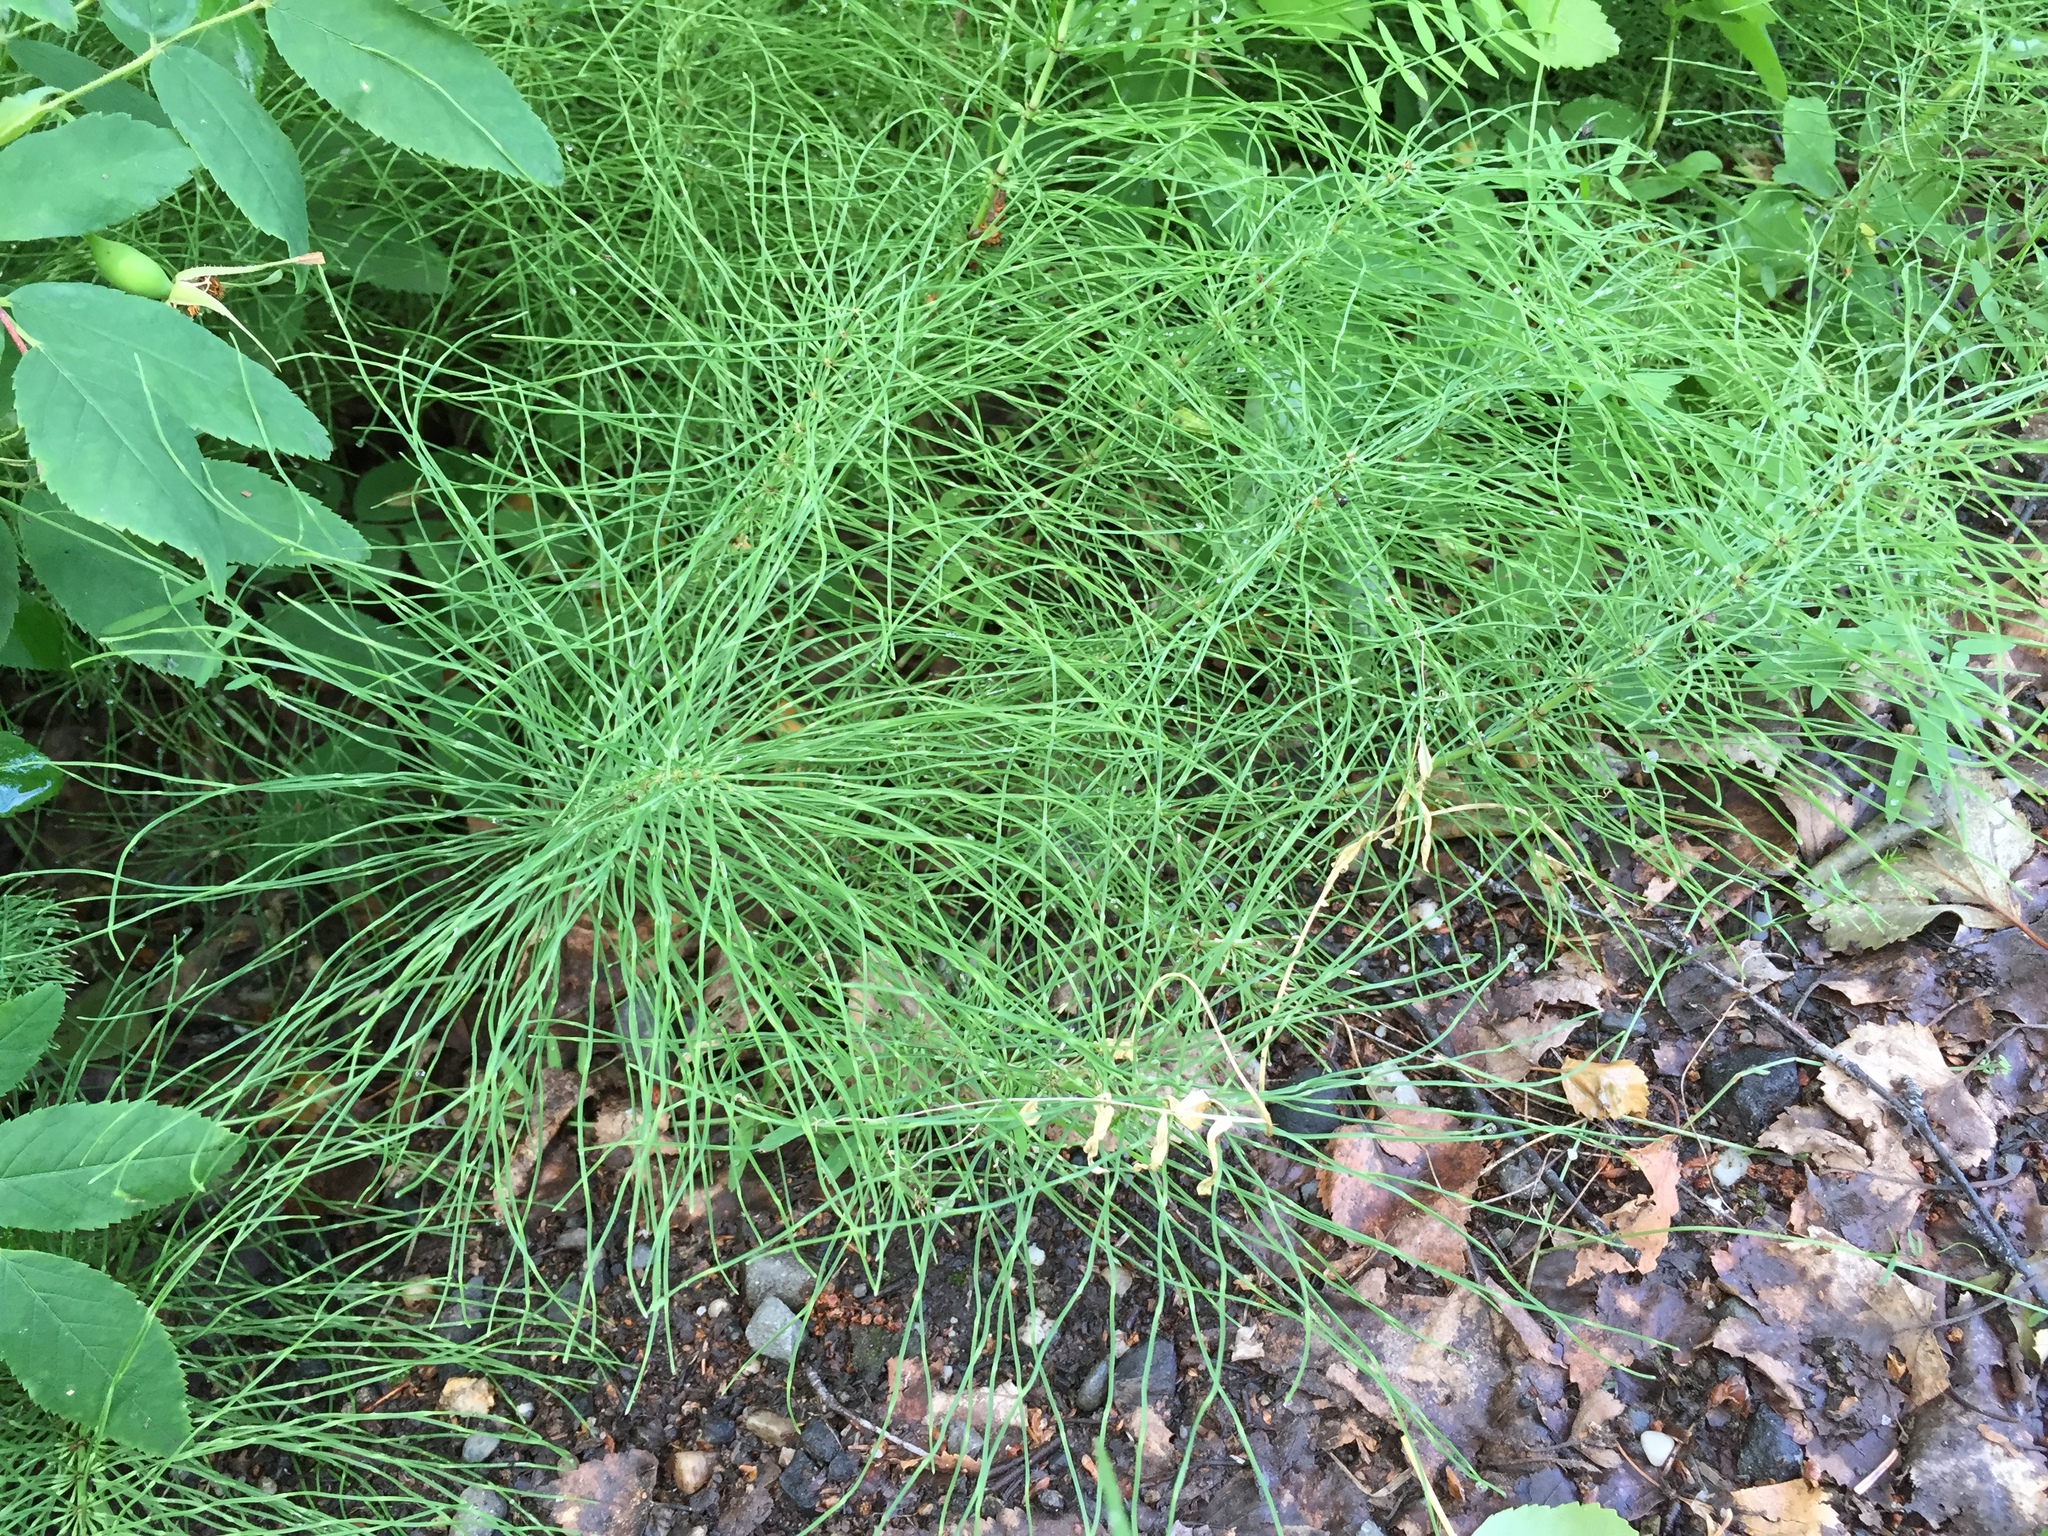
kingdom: Plantae
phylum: Tracheophyta
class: Polypodiopsida
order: Equisetales
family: Equisetaceae
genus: Equisetum
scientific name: Equisetum pratense
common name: Meadow horsetail
